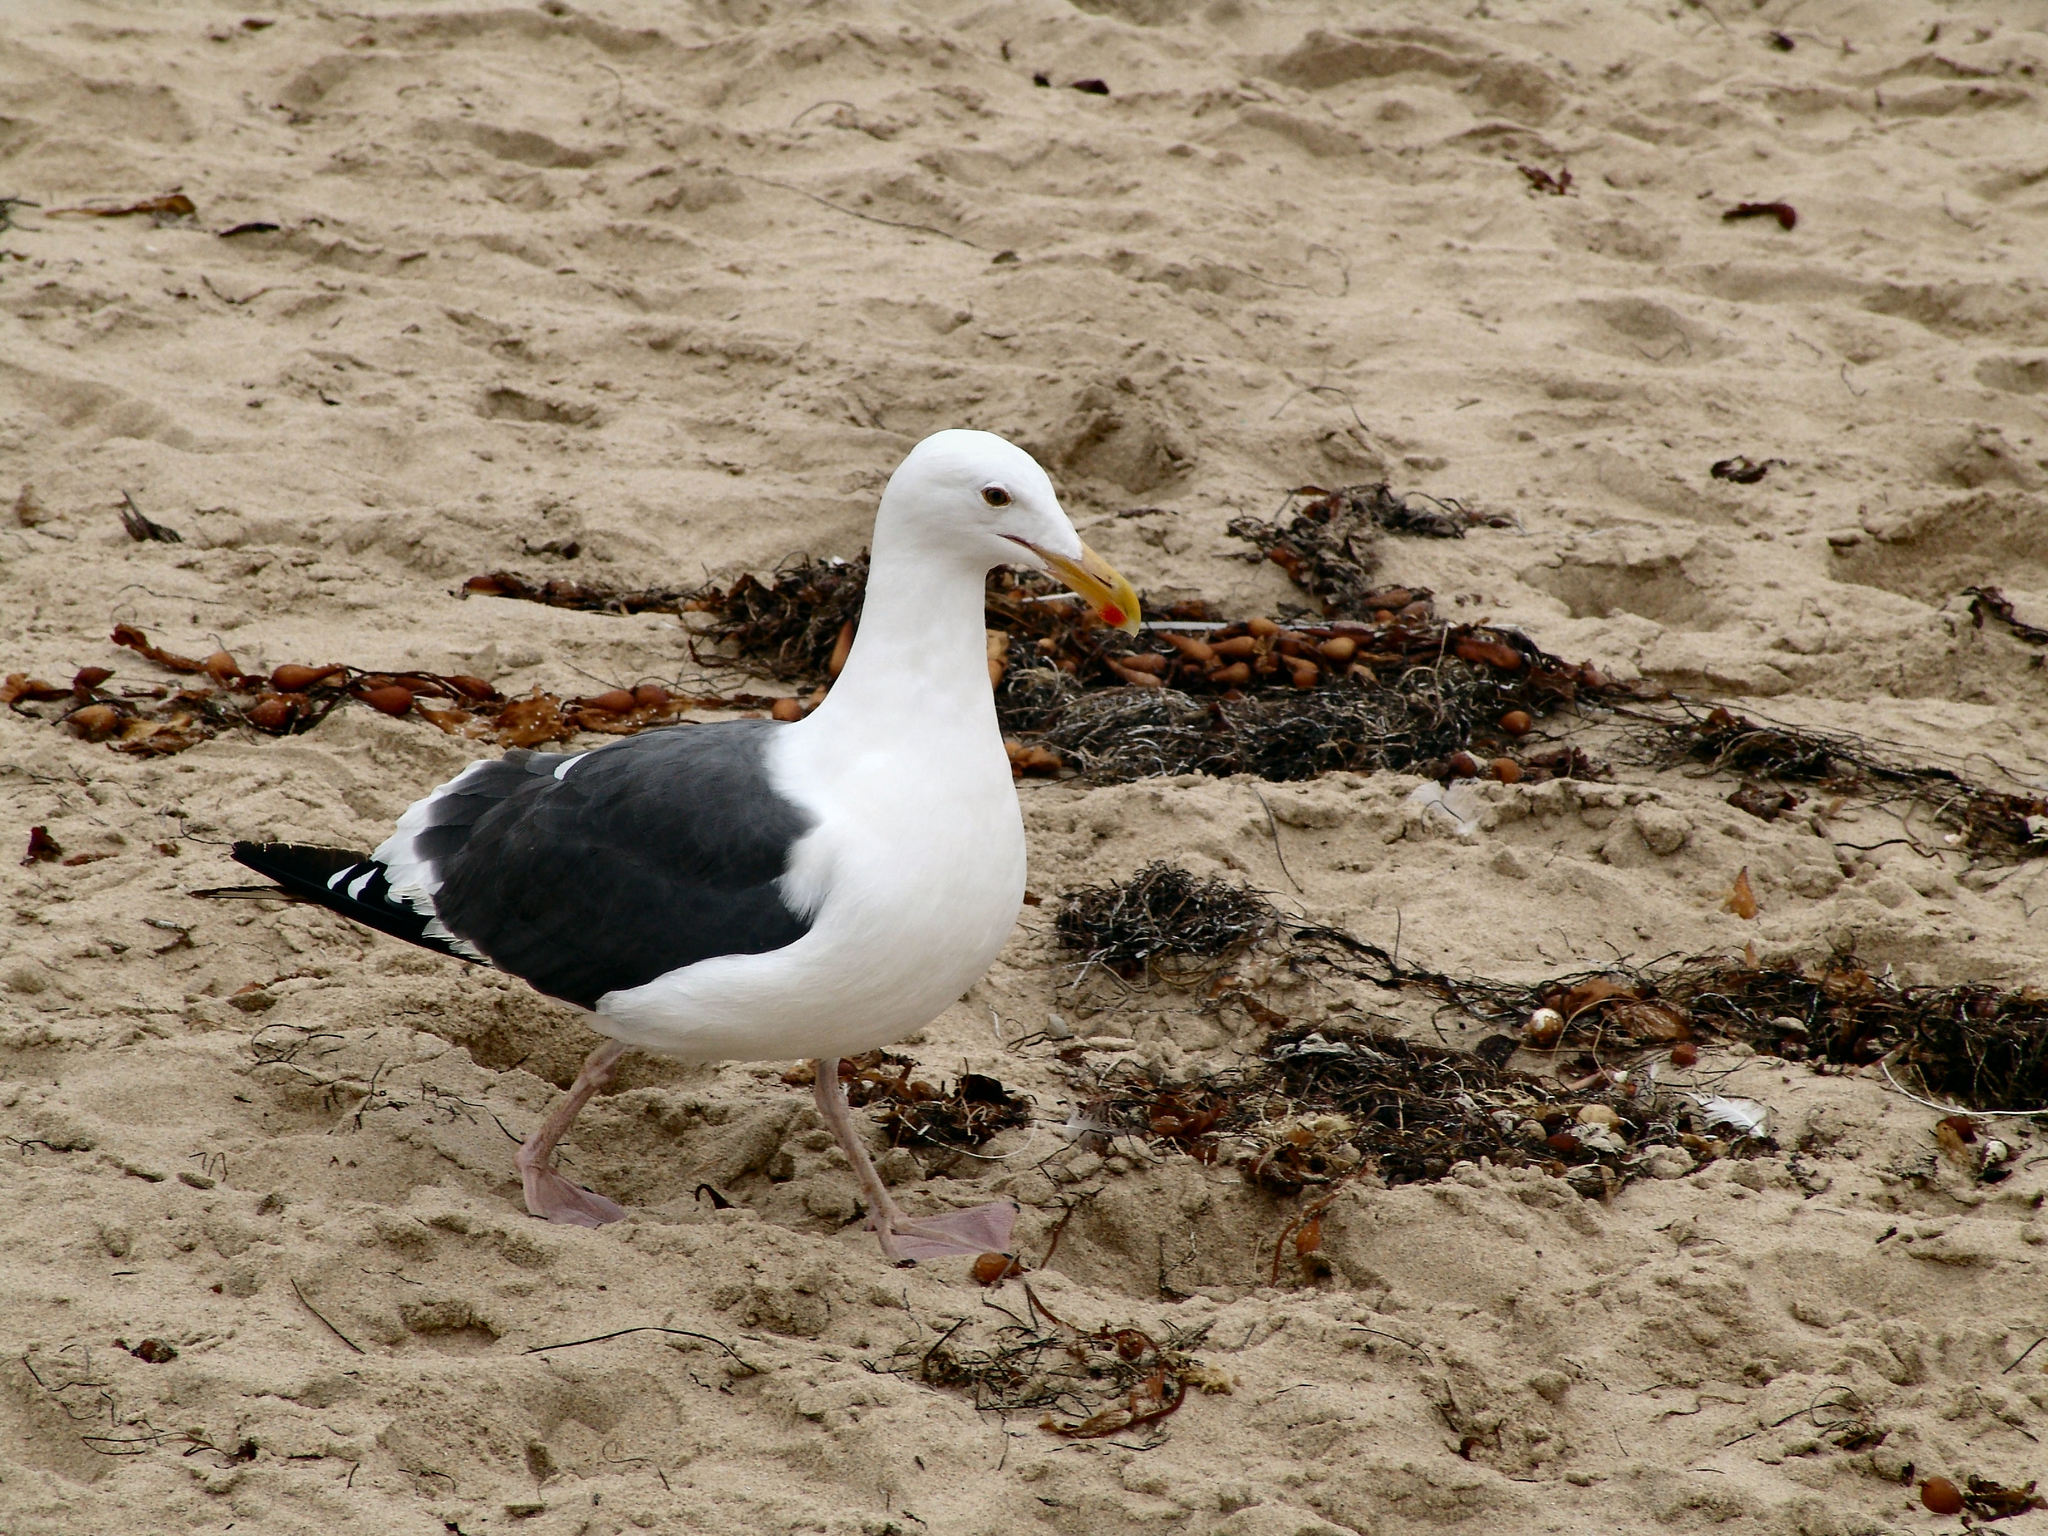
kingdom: Animalia
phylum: Chordata
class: Aves
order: Charadriiformes
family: Laridae
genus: Larus
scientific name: Larus occidentalis
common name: Western gull
